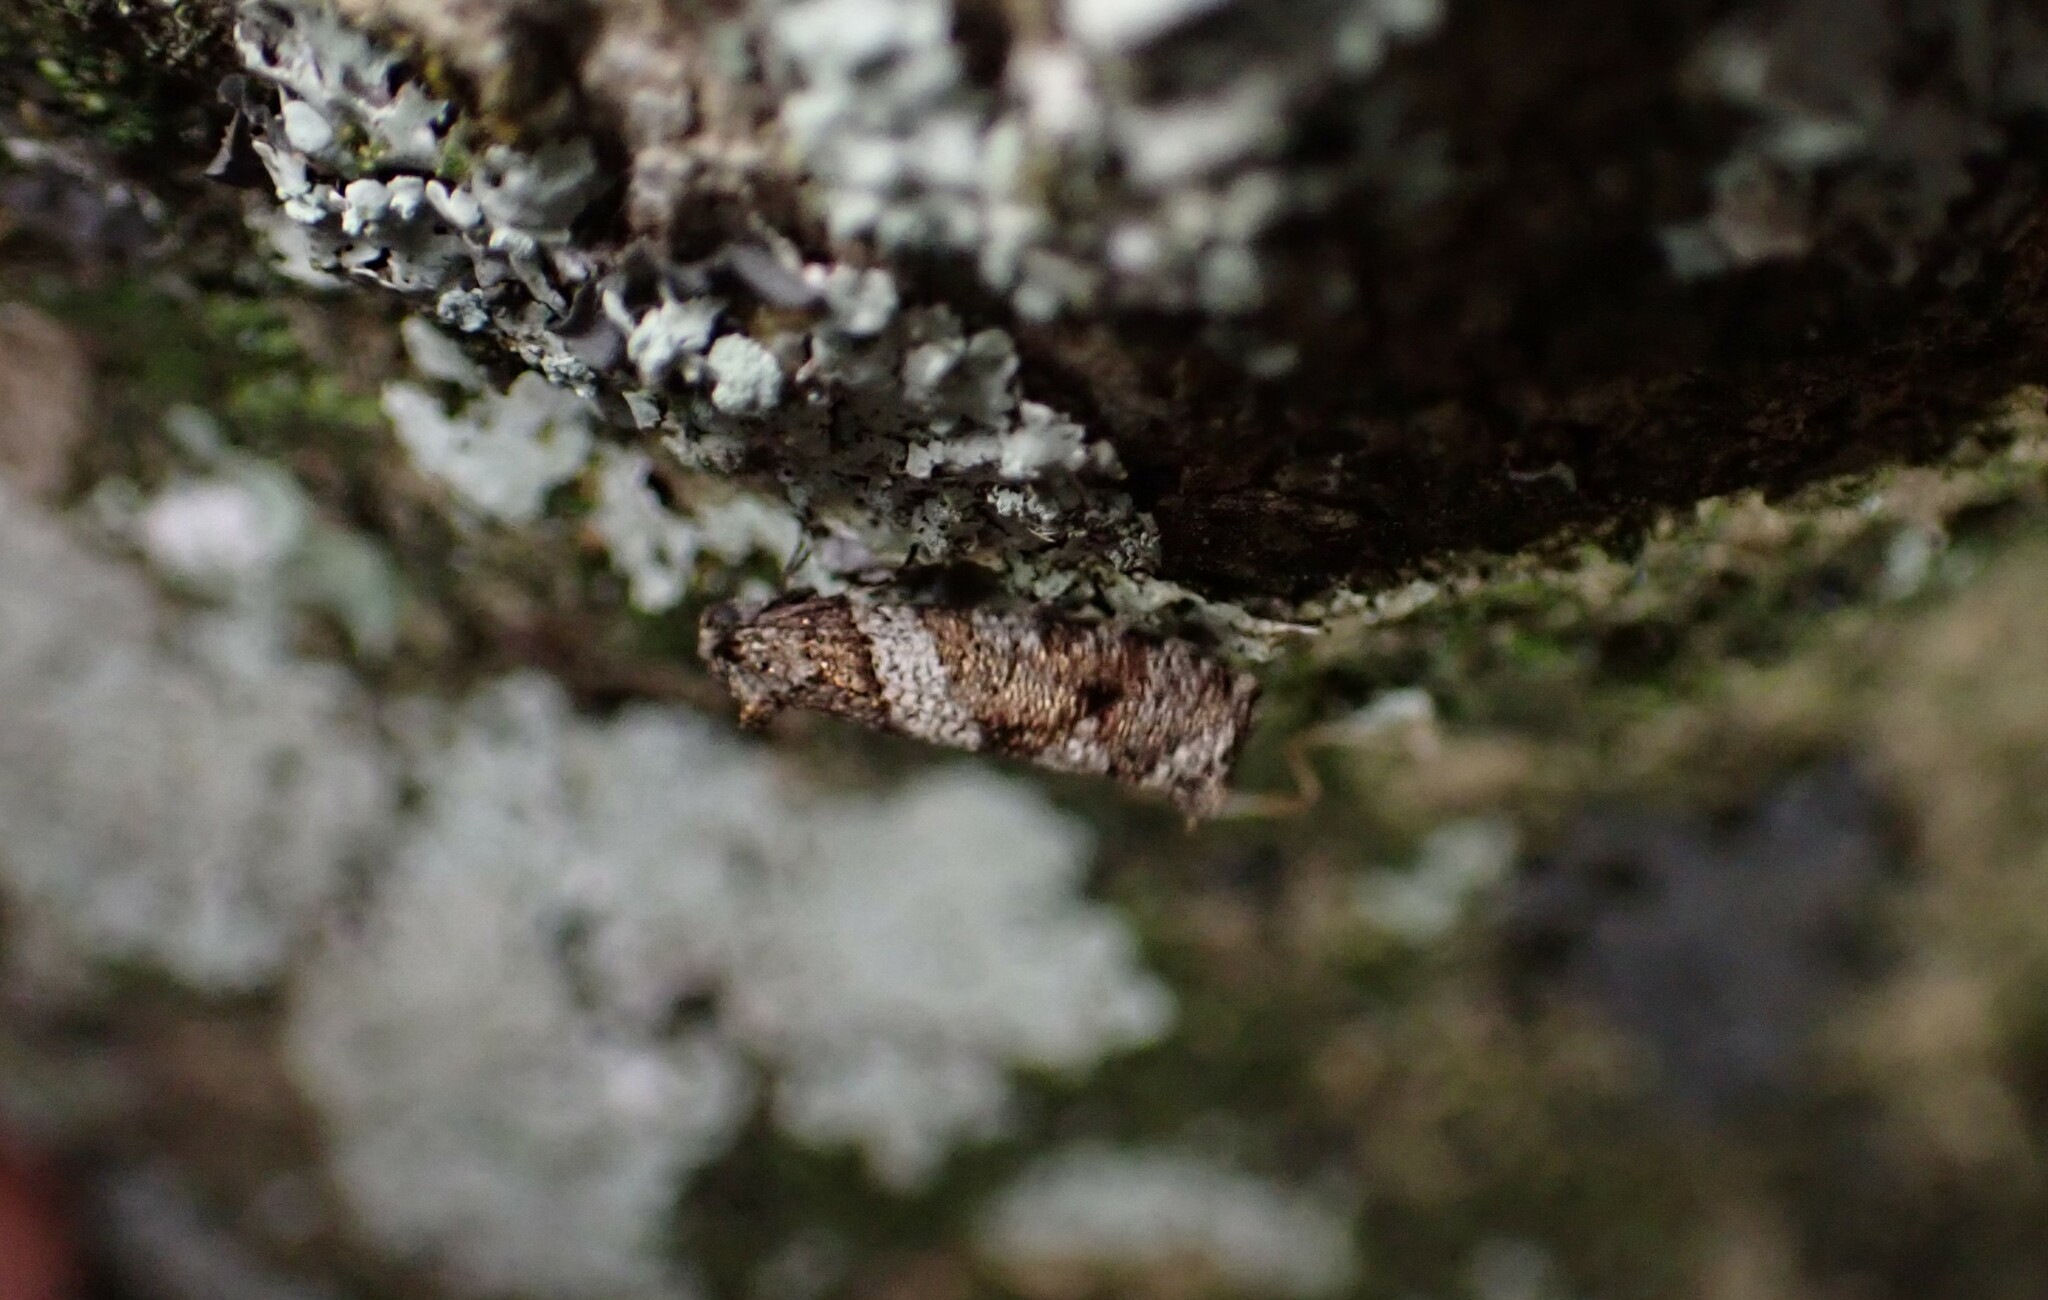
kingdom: Animalia
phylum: Arthropoda
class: Insecta
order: Lepidoptera
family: Psychidae
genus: Lepidoscia
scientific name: Lepidoscia heliochares
